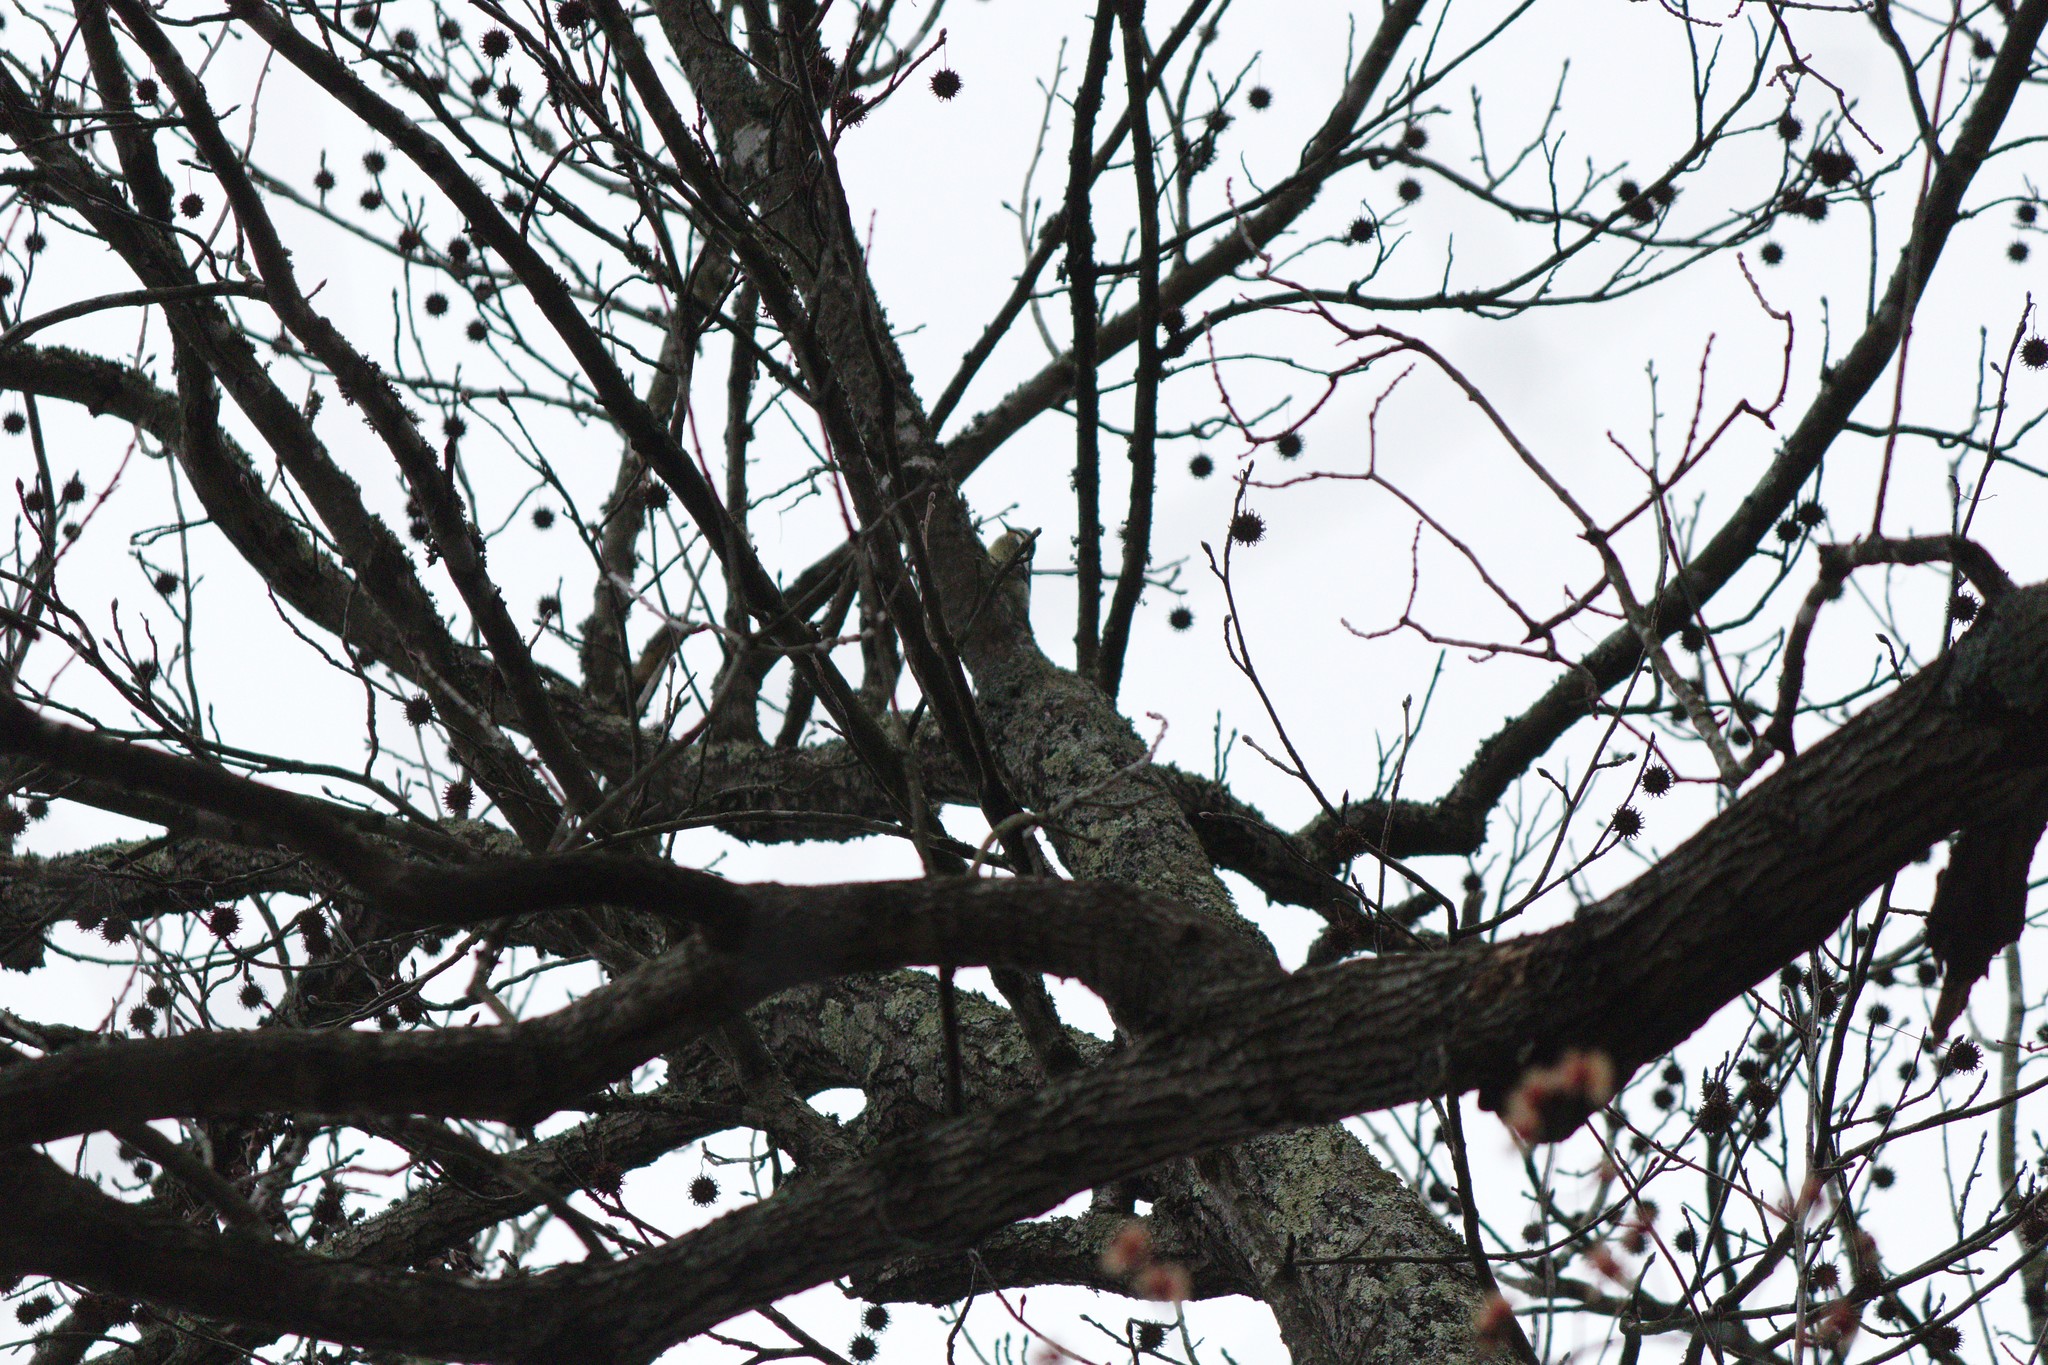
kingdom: Plantae
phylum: Tracheophyta
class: Magnoliopsida
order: Saxifragales
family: Altingiaceae
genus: Liquidambar
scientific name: Liquidambar styraciflua
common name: Sweet gum
